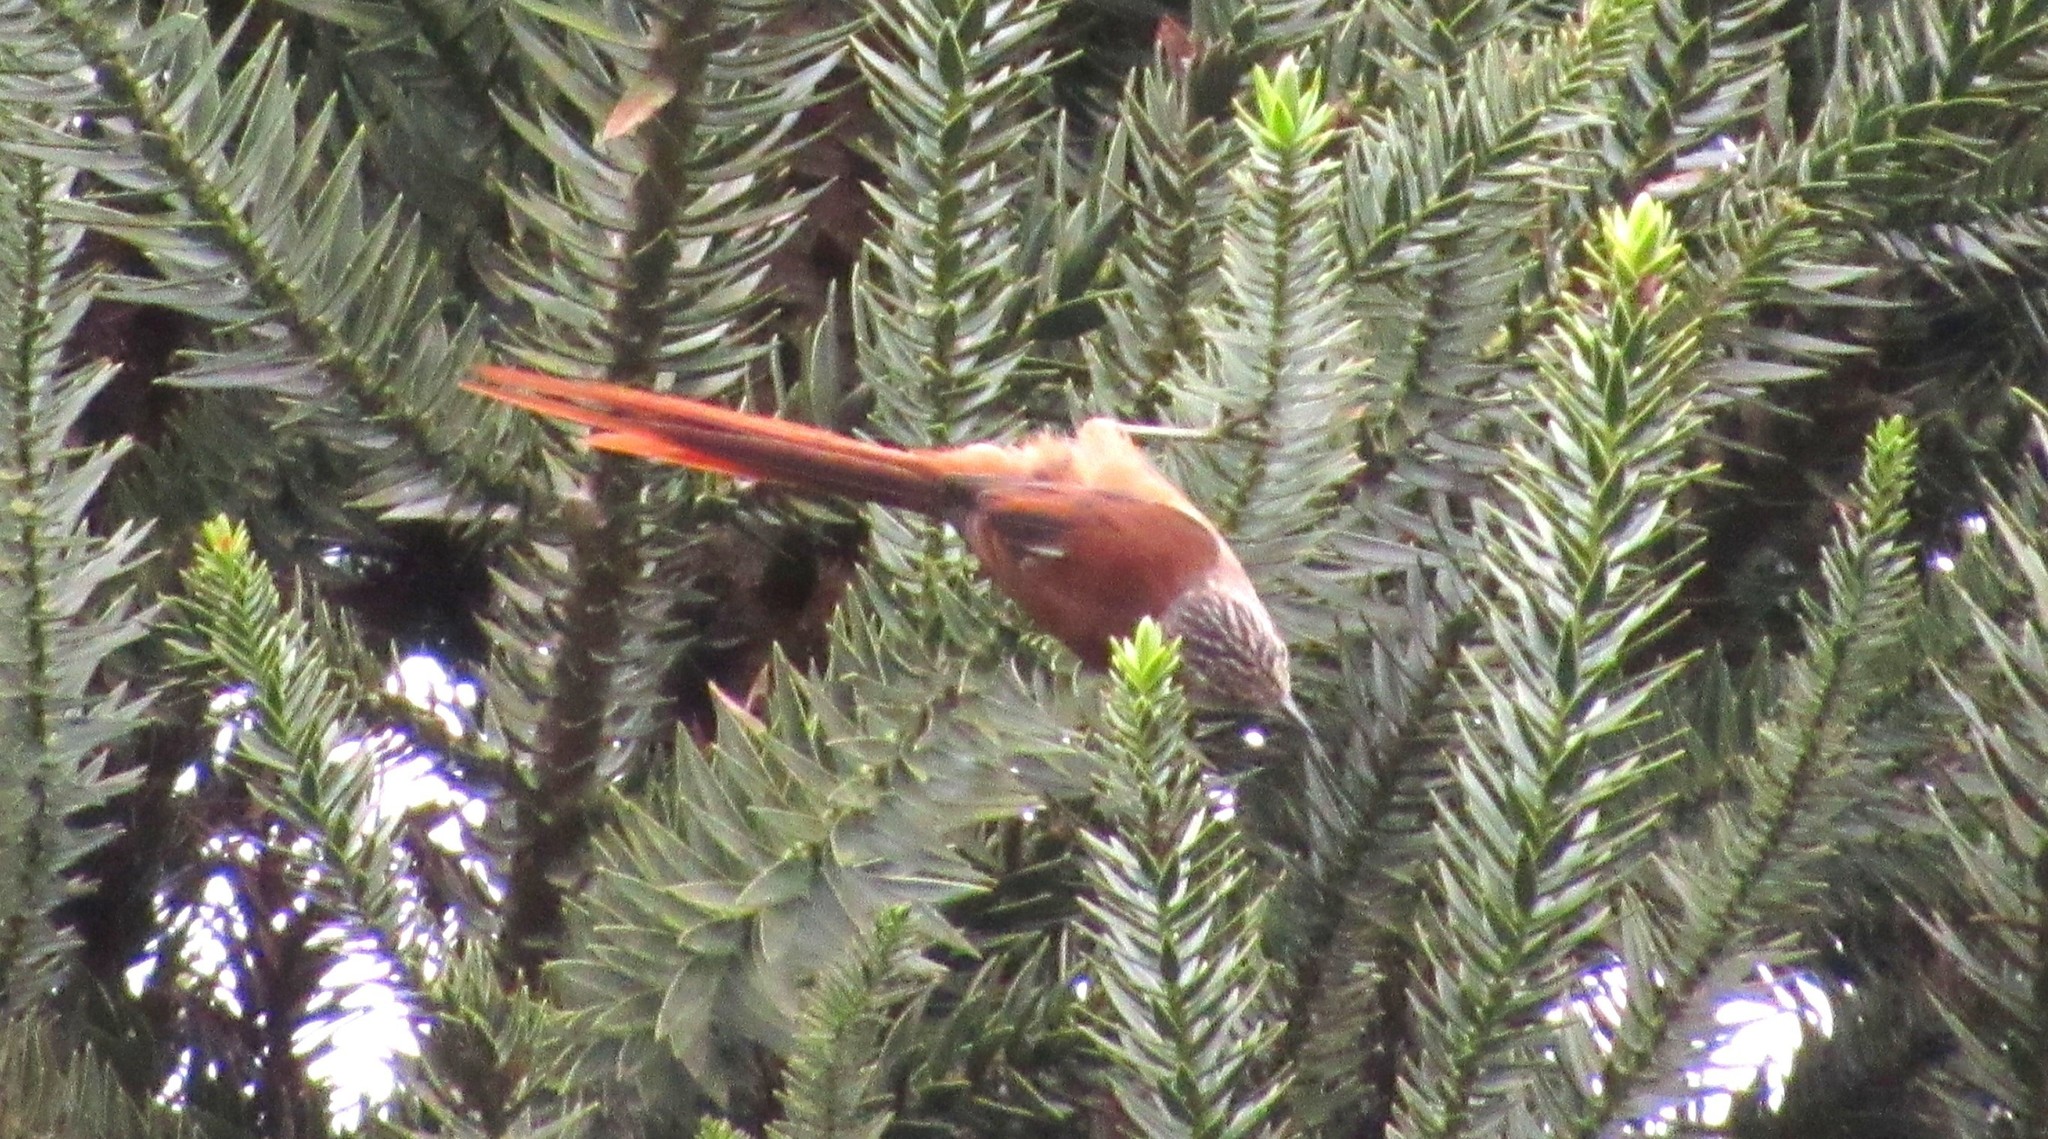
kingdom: Animalia
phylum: Chordata
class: Aves
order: Passeriformes
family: Furnariidae
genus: Leptasthenura
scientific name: Leptasthenura setaria
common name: Araucaria tit-spinetail
